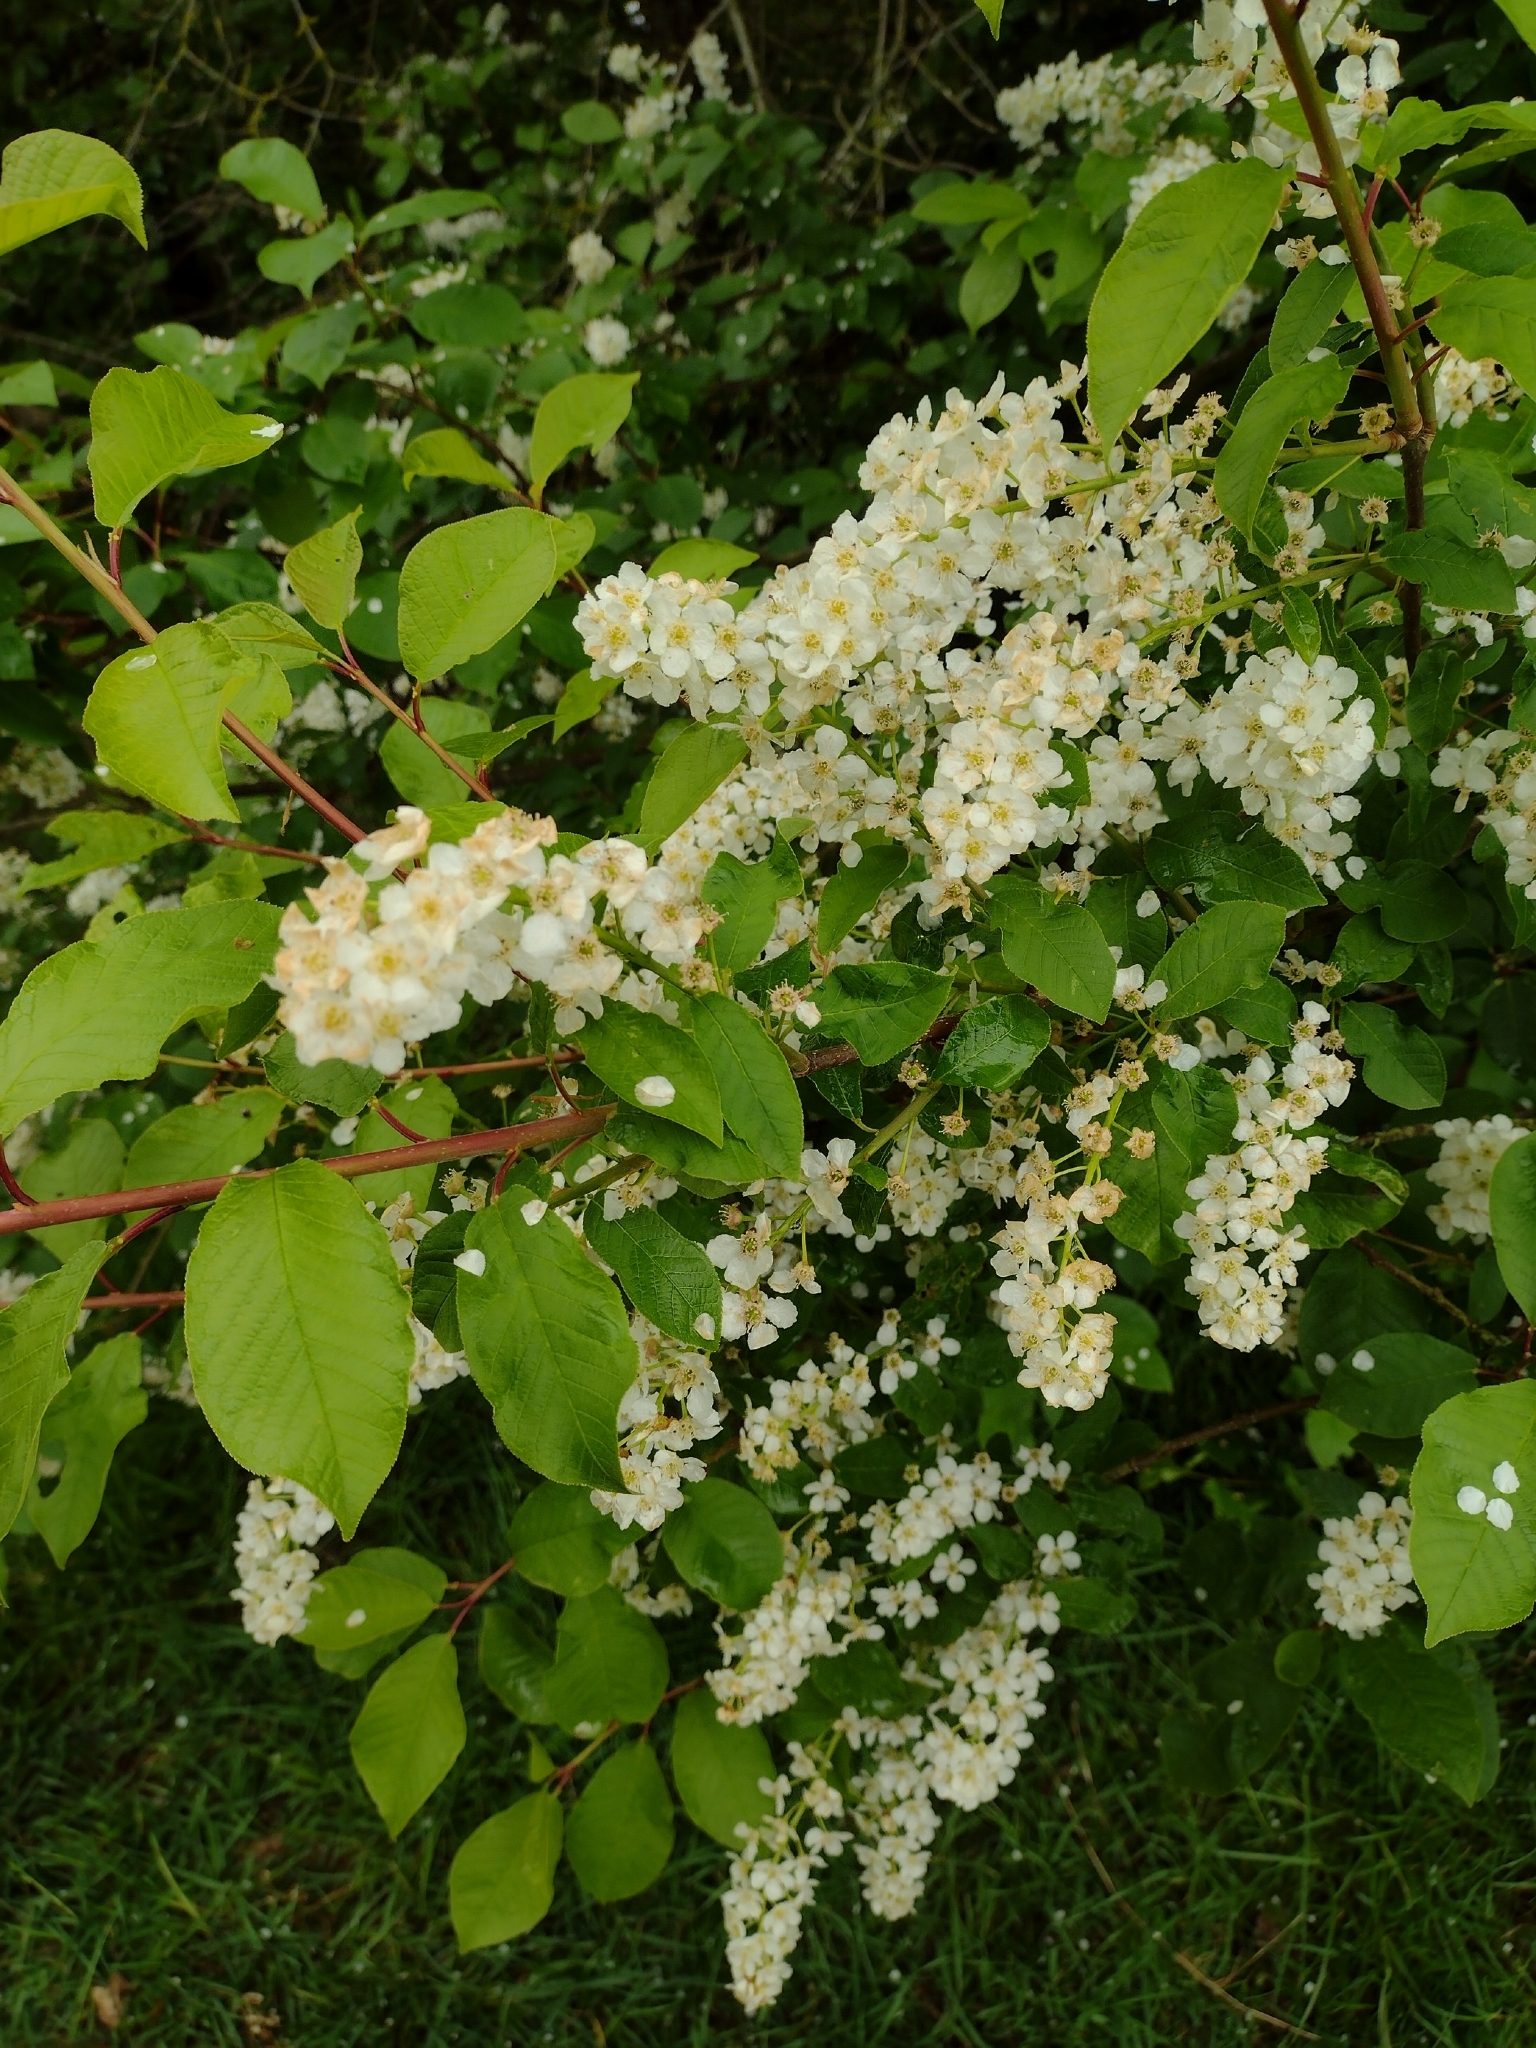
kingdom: Plantae
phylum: Tracheophyta
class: Magnoliopsida
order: Rosales
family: Rosaceae
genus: Prunus
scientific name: Prunus padus
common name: Bird cherry
